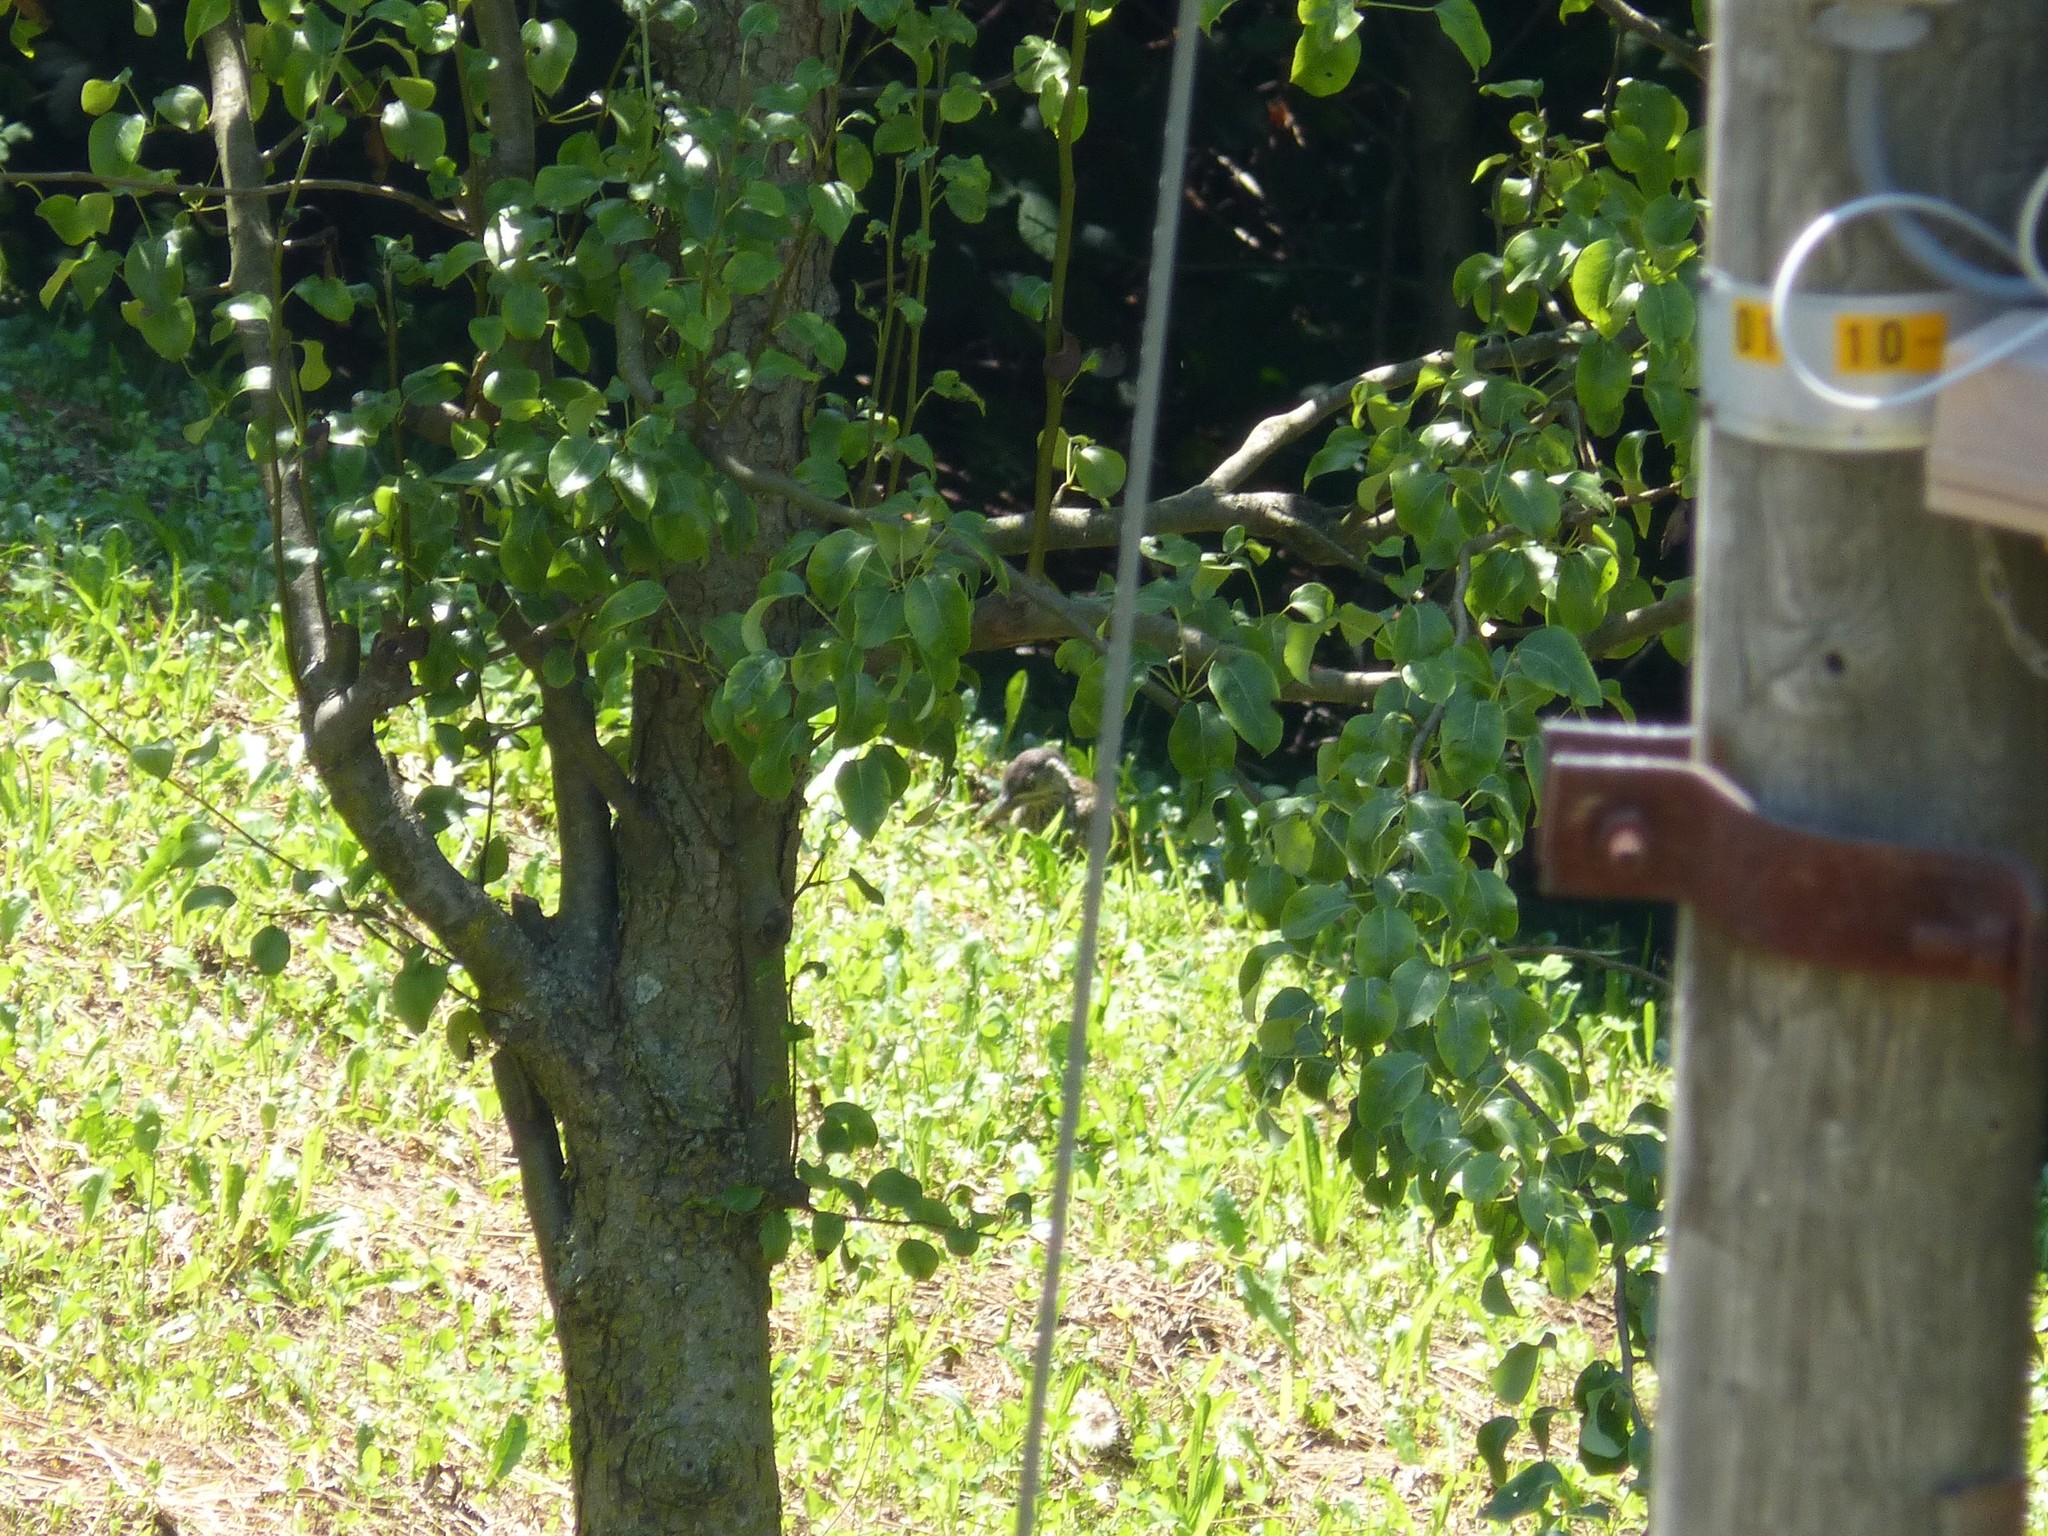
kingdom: Animalia
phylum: Chordata
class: Aves
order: Piciformes
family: Picidae
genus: Picus
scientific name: Picus viridis
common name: European green woodpecker
